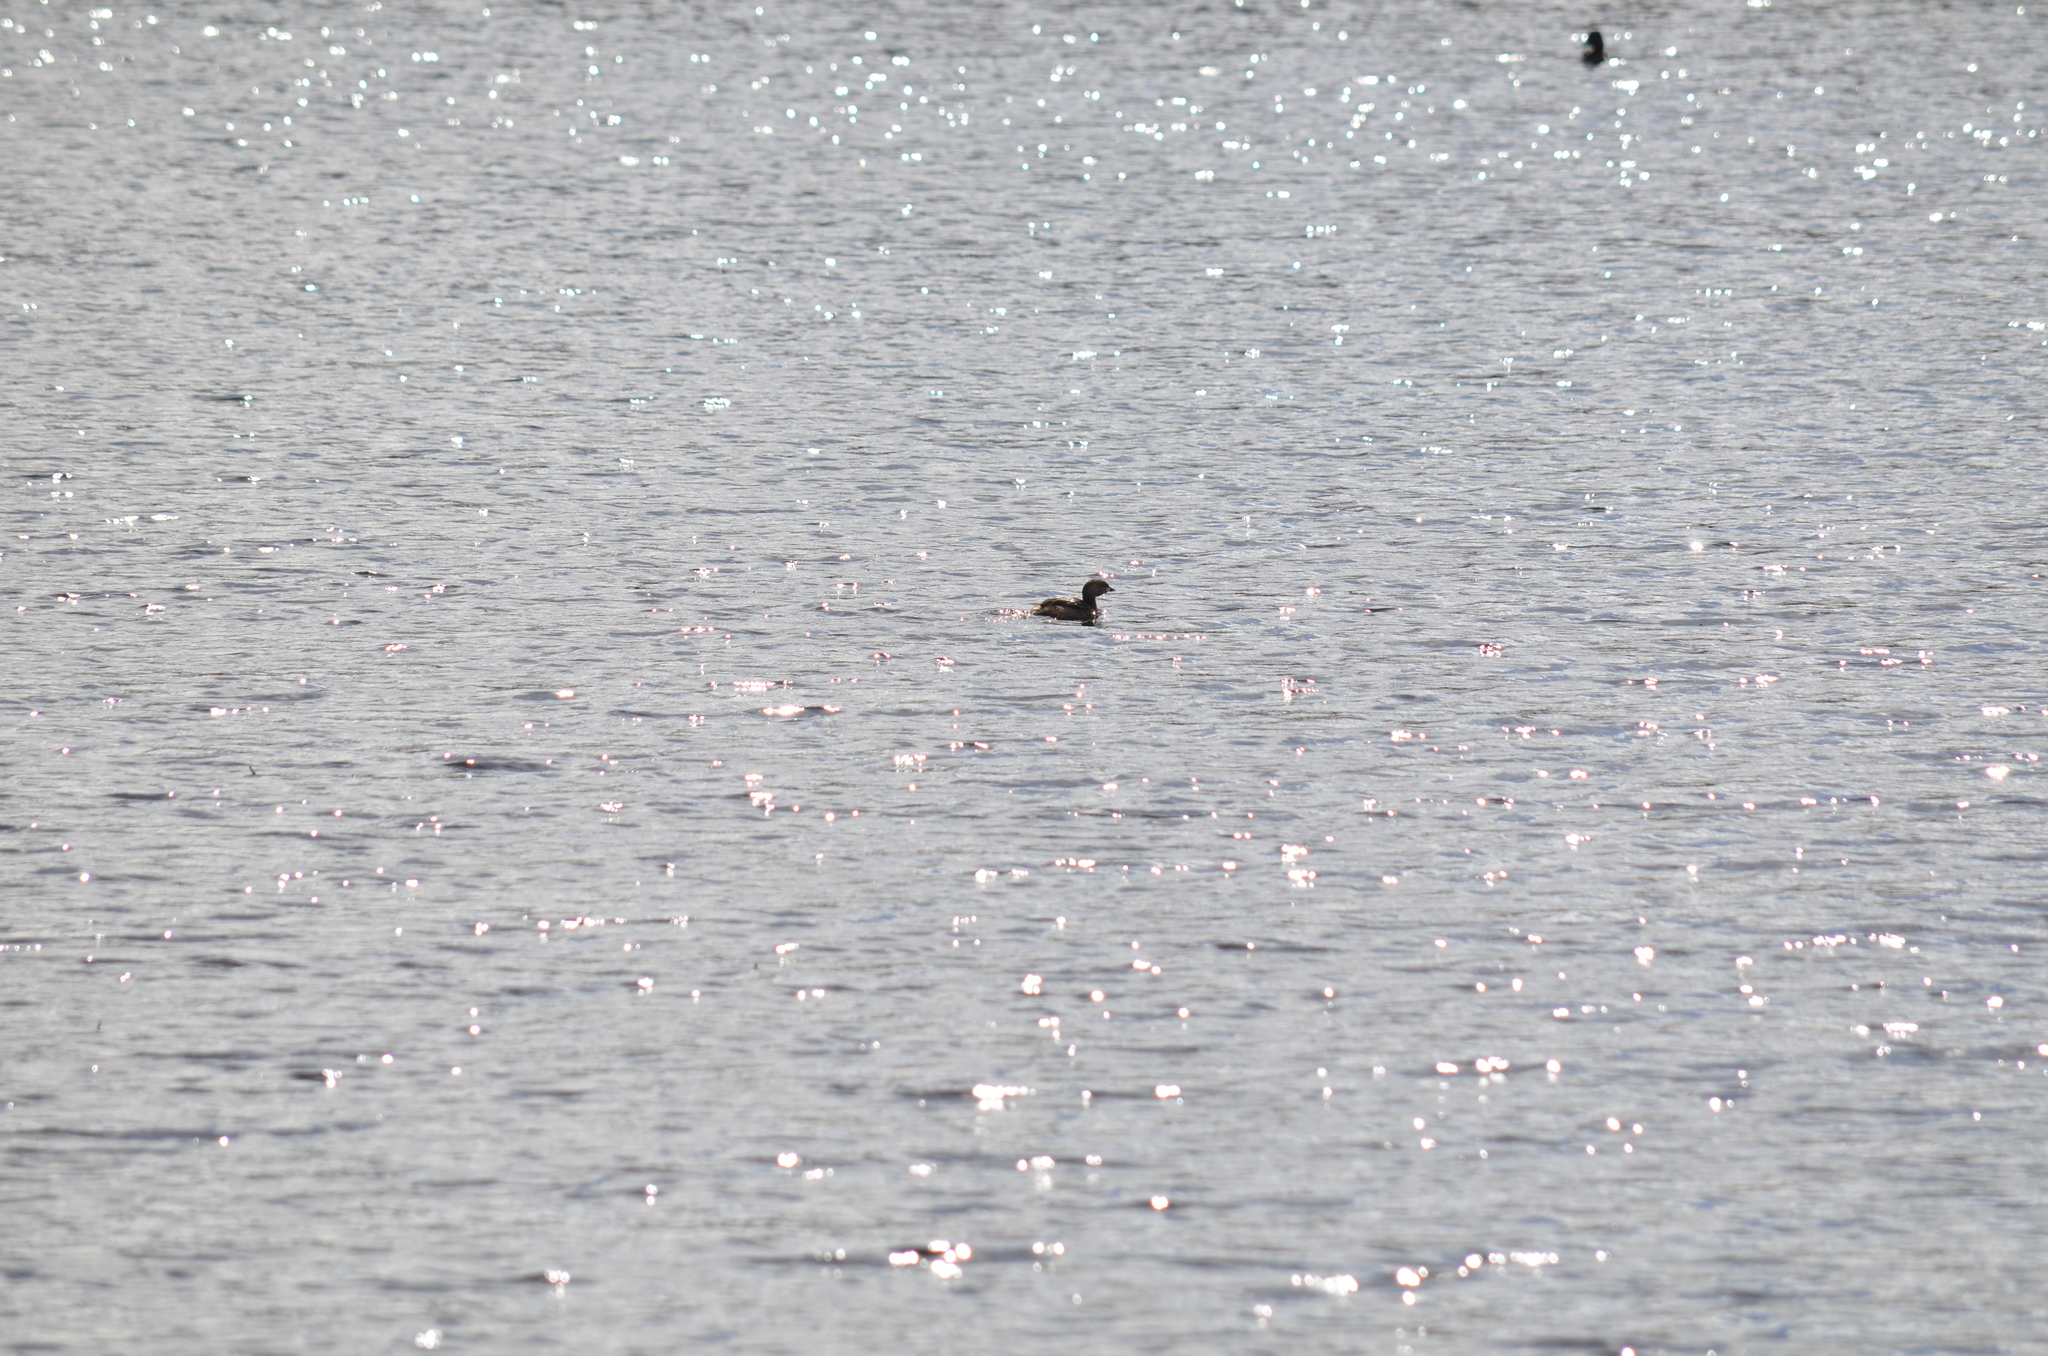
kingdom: Animalia
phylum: Chordata
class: Aves
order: Podicipediformes
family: Podicipedidae
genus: Podilymbus
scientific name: Podilymbus podiceps
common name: Pied-billed grebe
